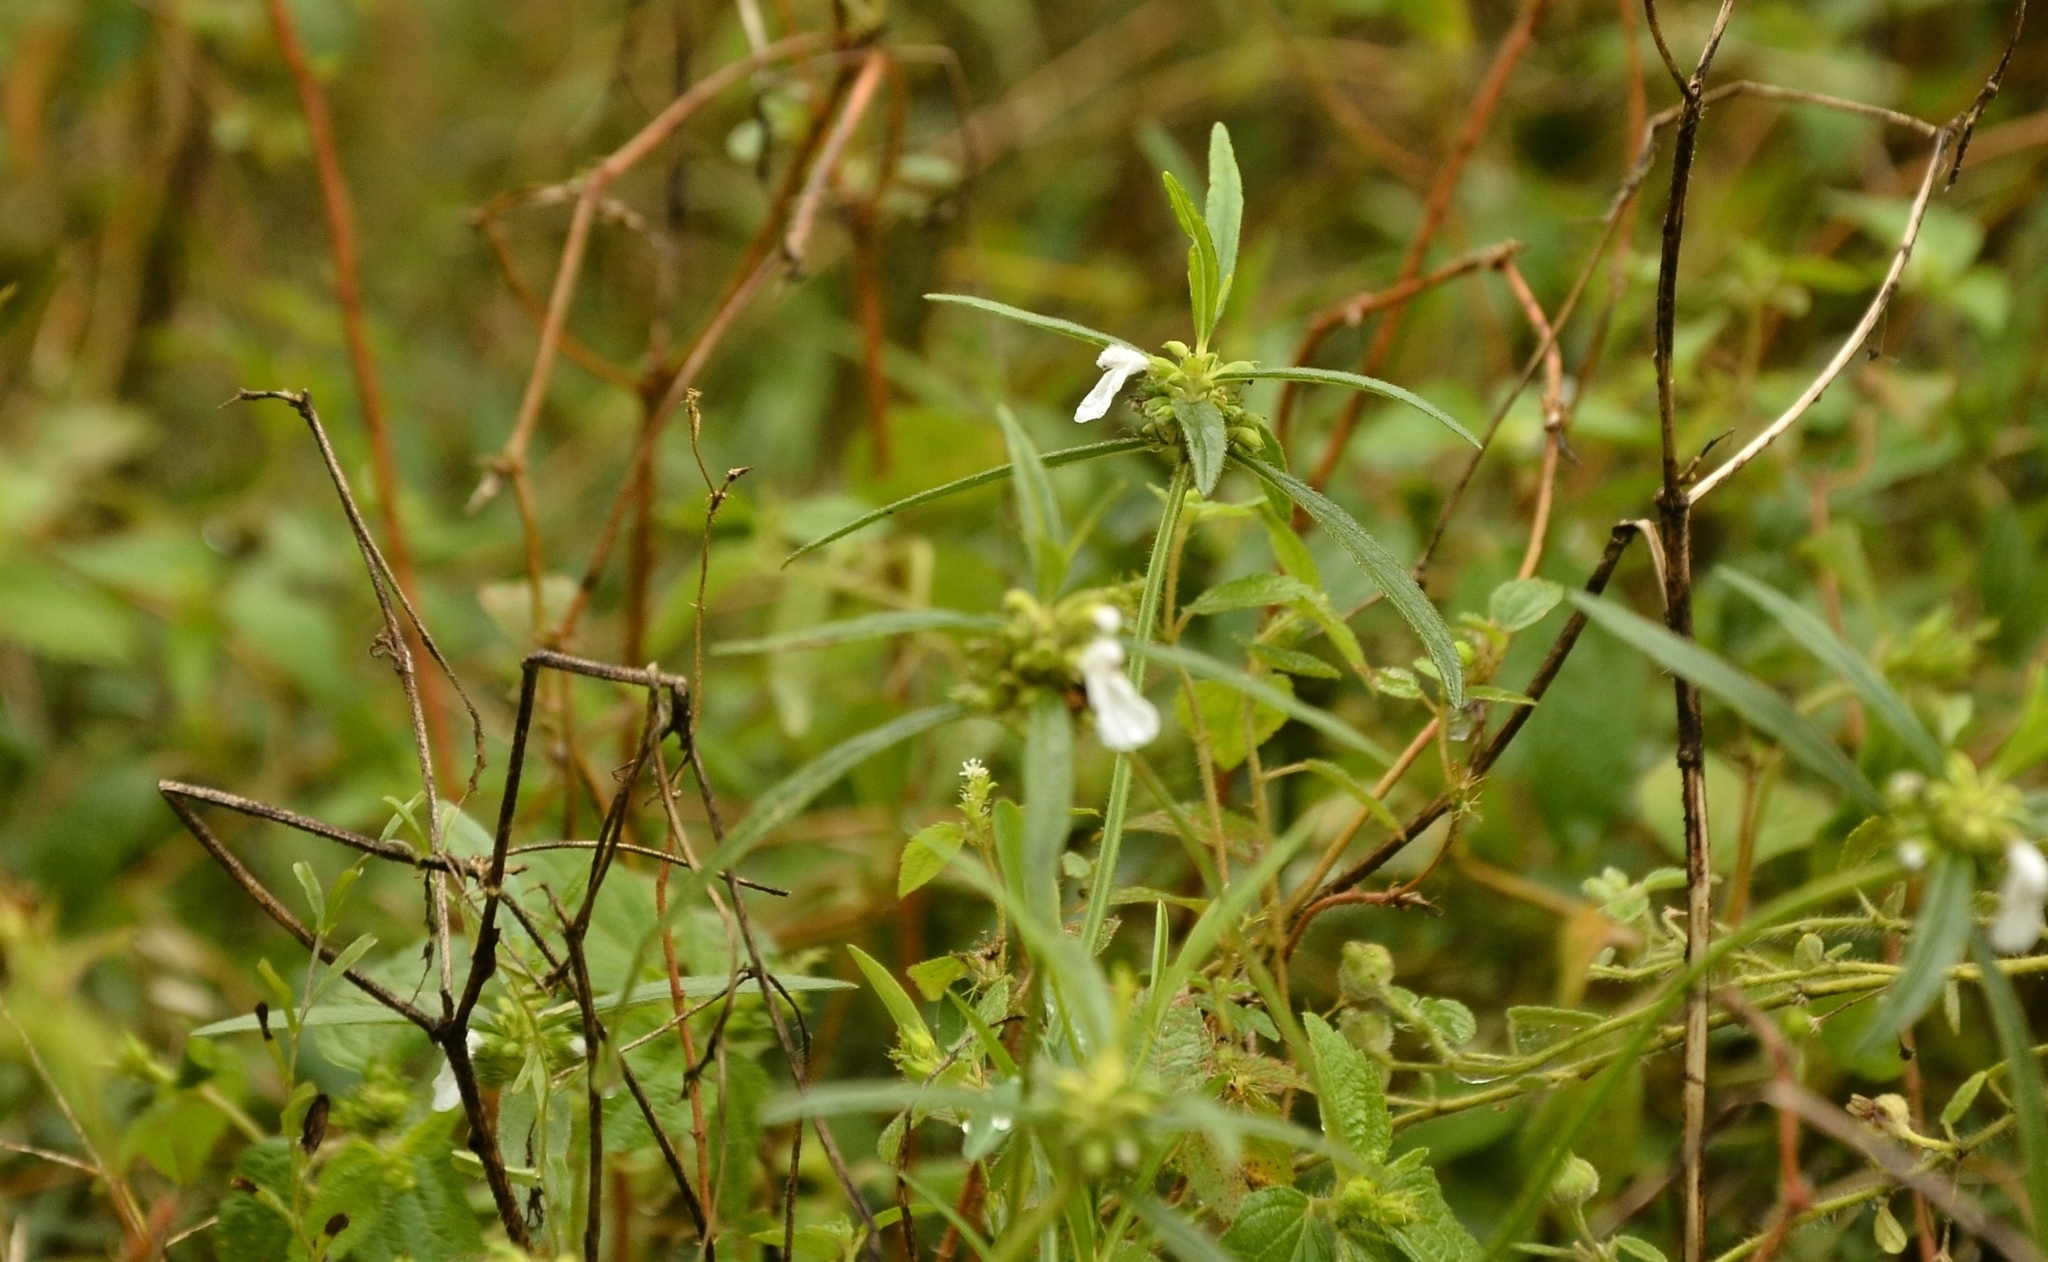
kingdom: Plantae
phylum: Tracheophyta
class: Magnoliopsida
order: Lamiales
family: Lamiaceae
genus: Leucas
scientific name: Leucas aspera
